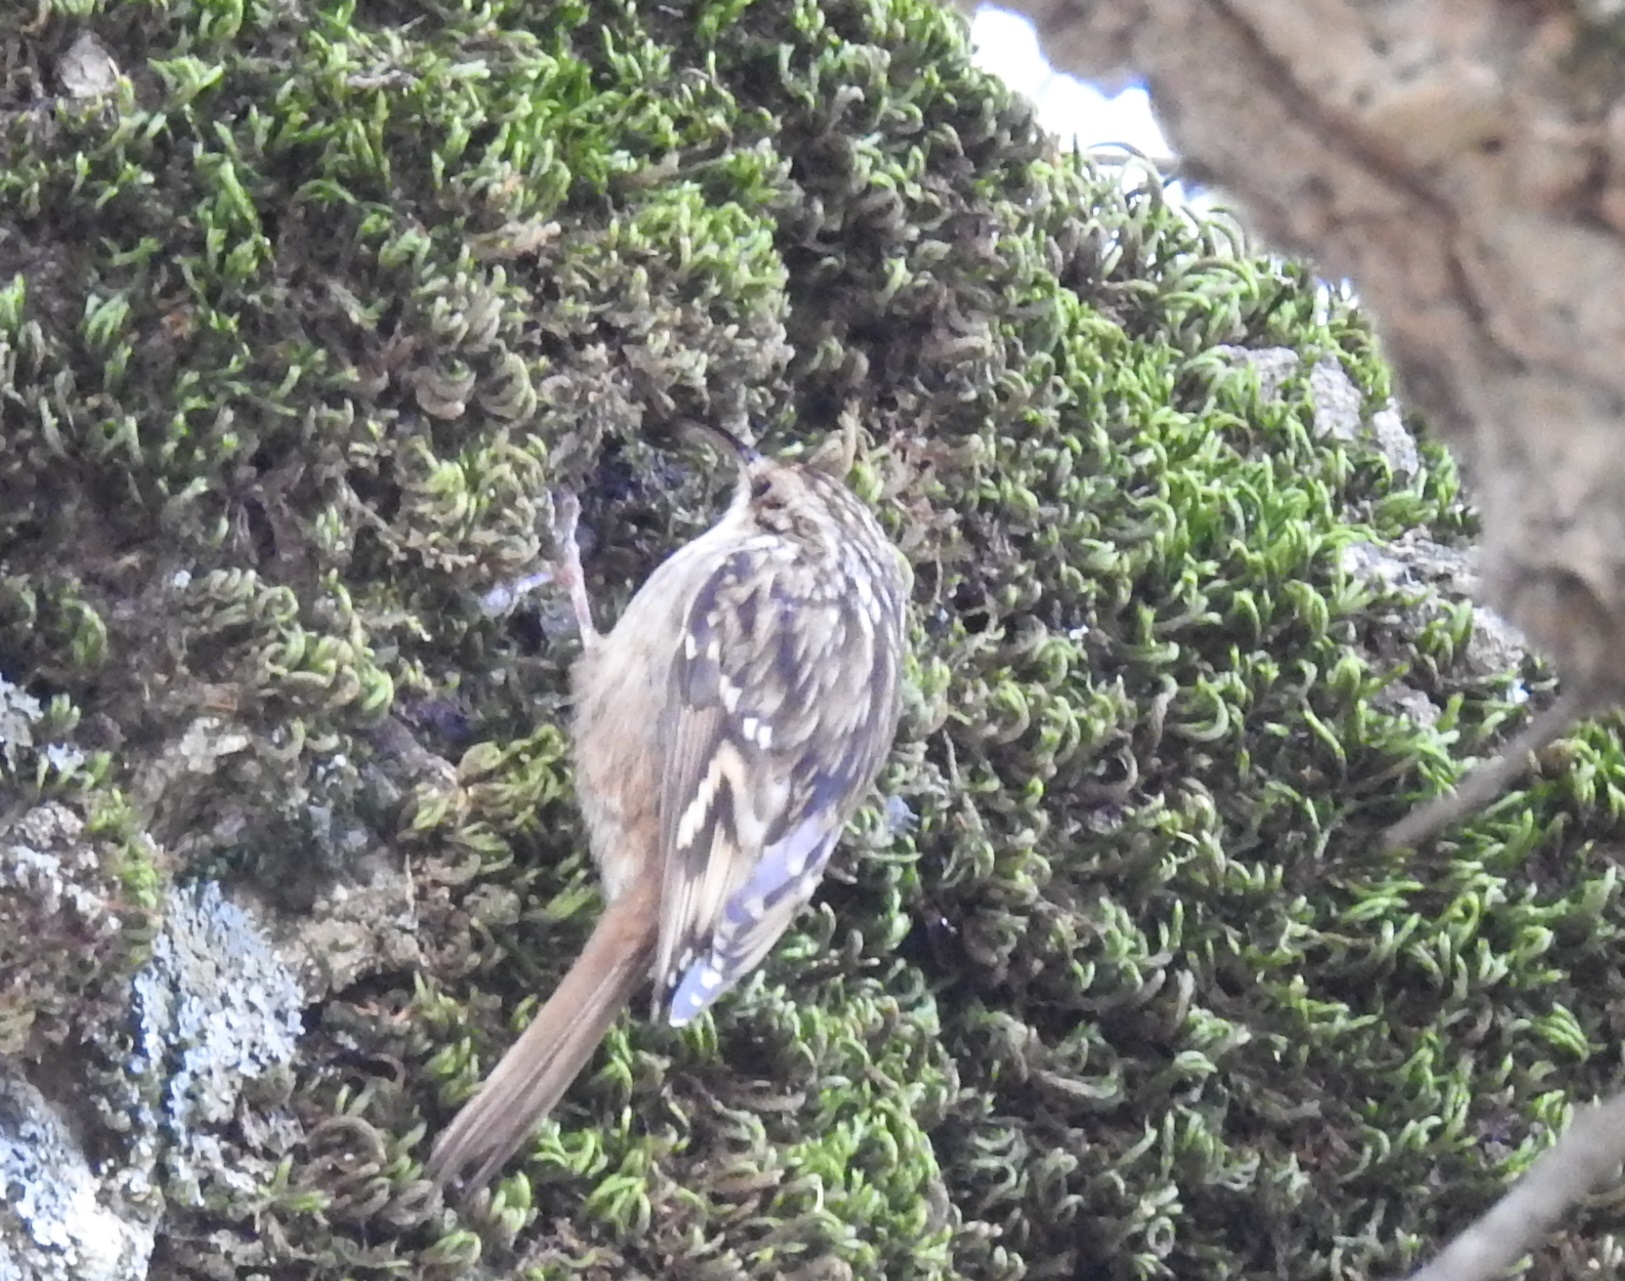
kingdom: Animalia
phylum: Chordata
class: Aves
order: Passeriformes
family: Certhiidae
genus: Certhia
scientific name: Certhia brachydactyla
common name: Short-toed treecreeper
